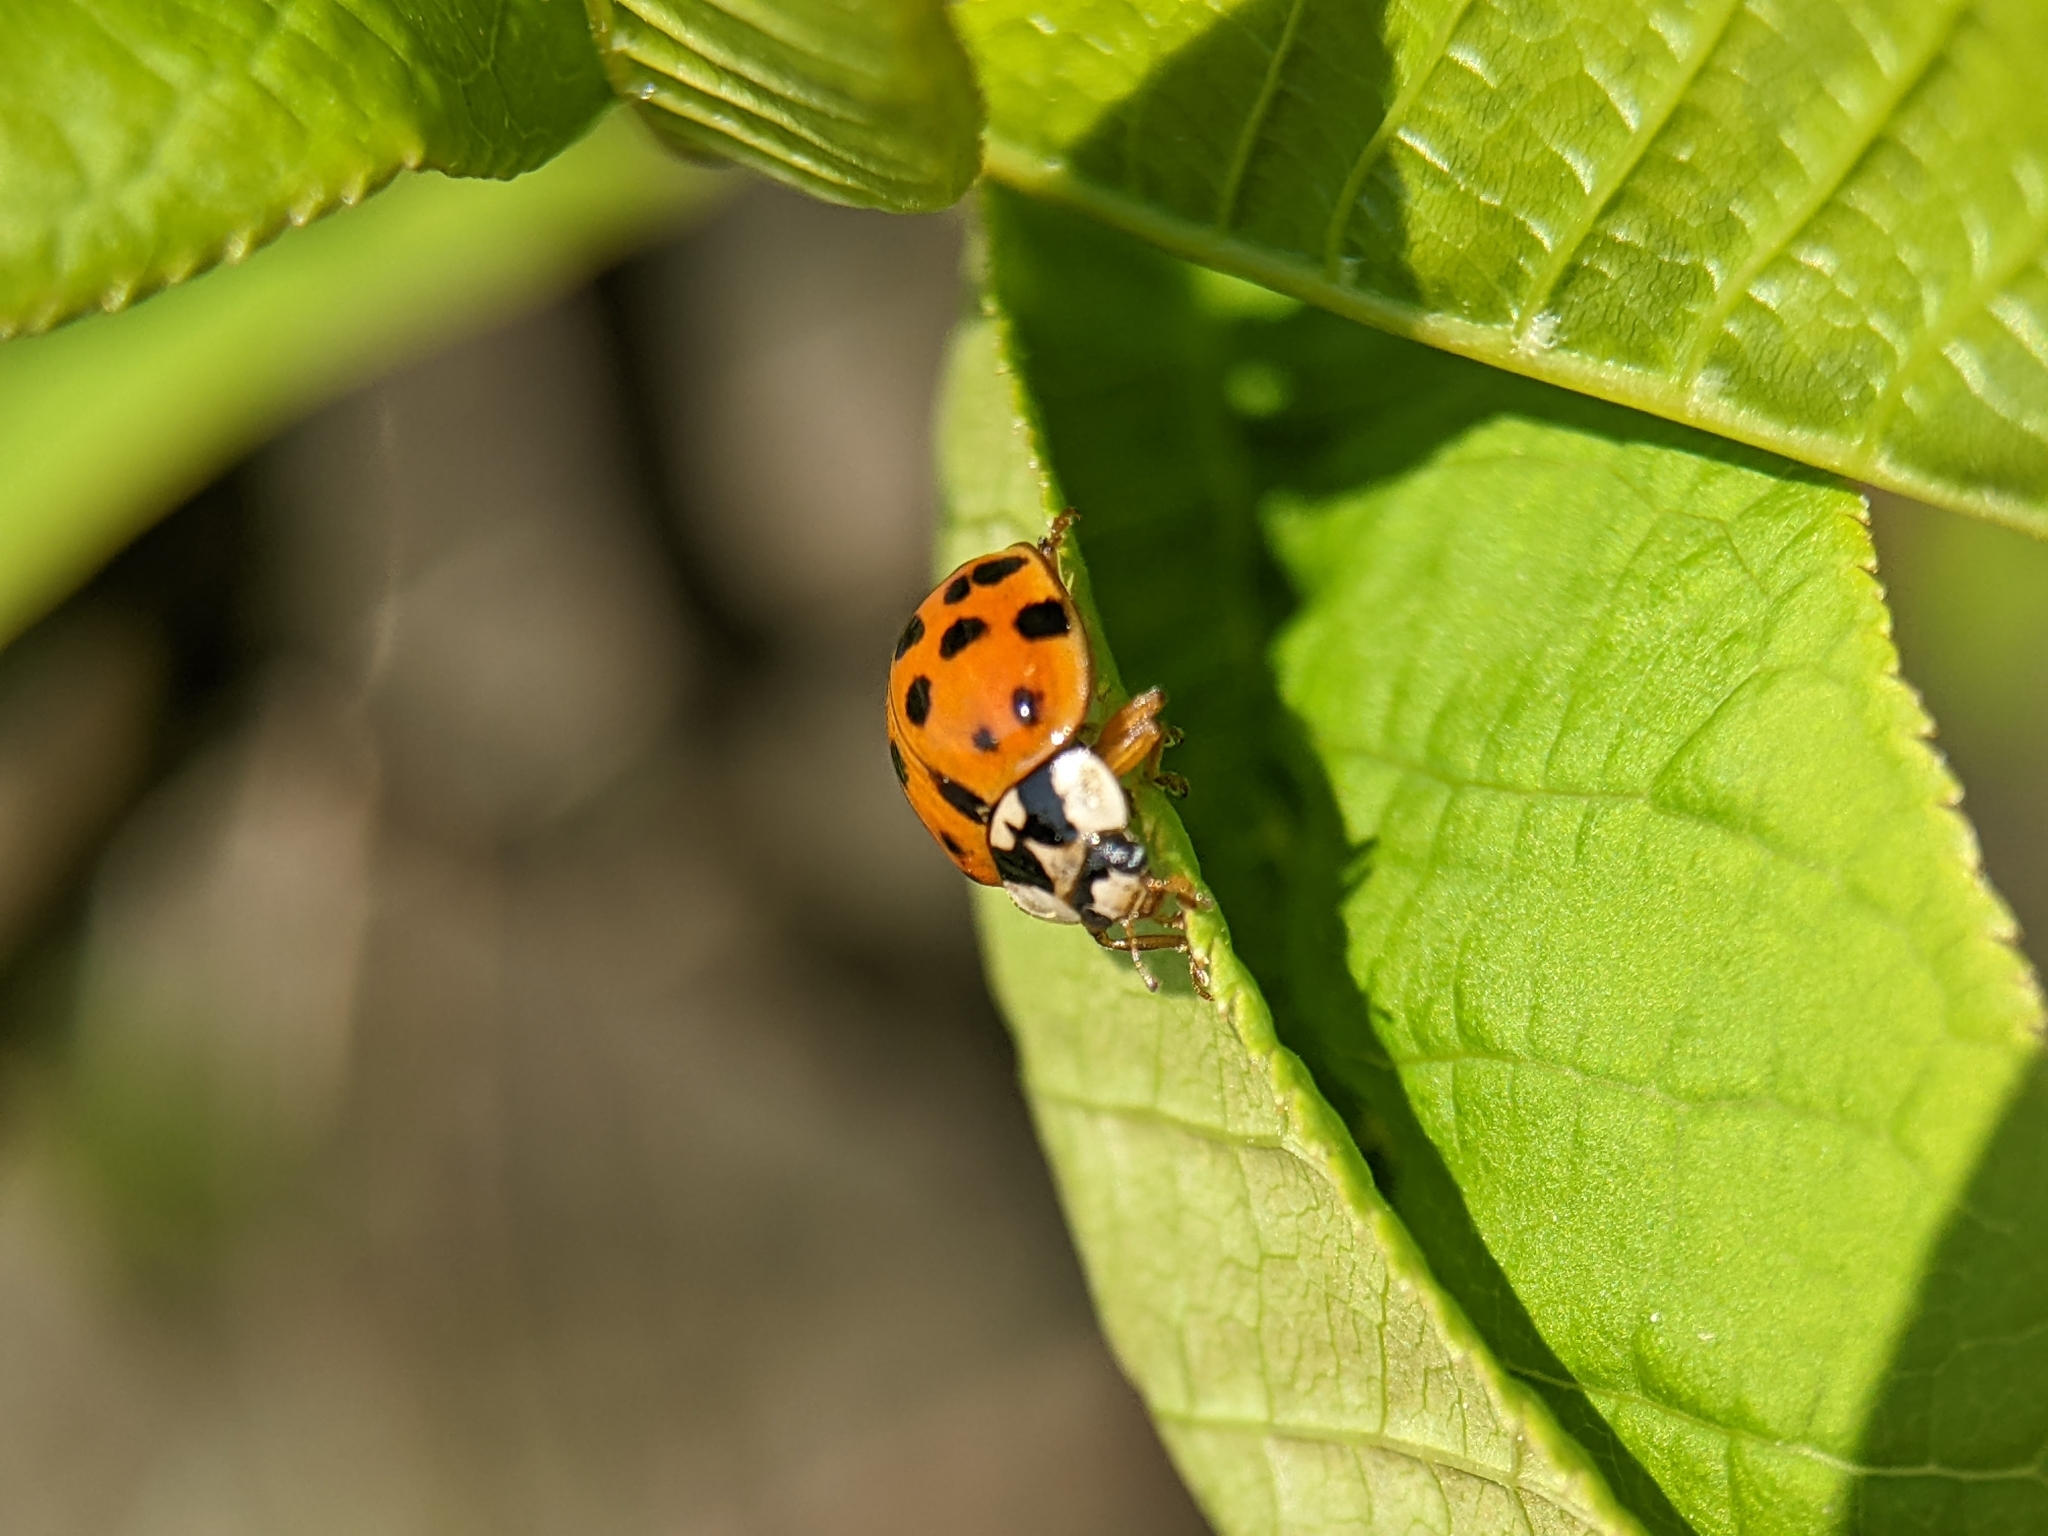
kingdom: Animalia
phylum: Arthropoda
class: Insecta
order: Coleoptera
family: Coccinellidae
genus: Harmonia
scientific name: Harmonia axyridis
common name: Harlequin ladybird
